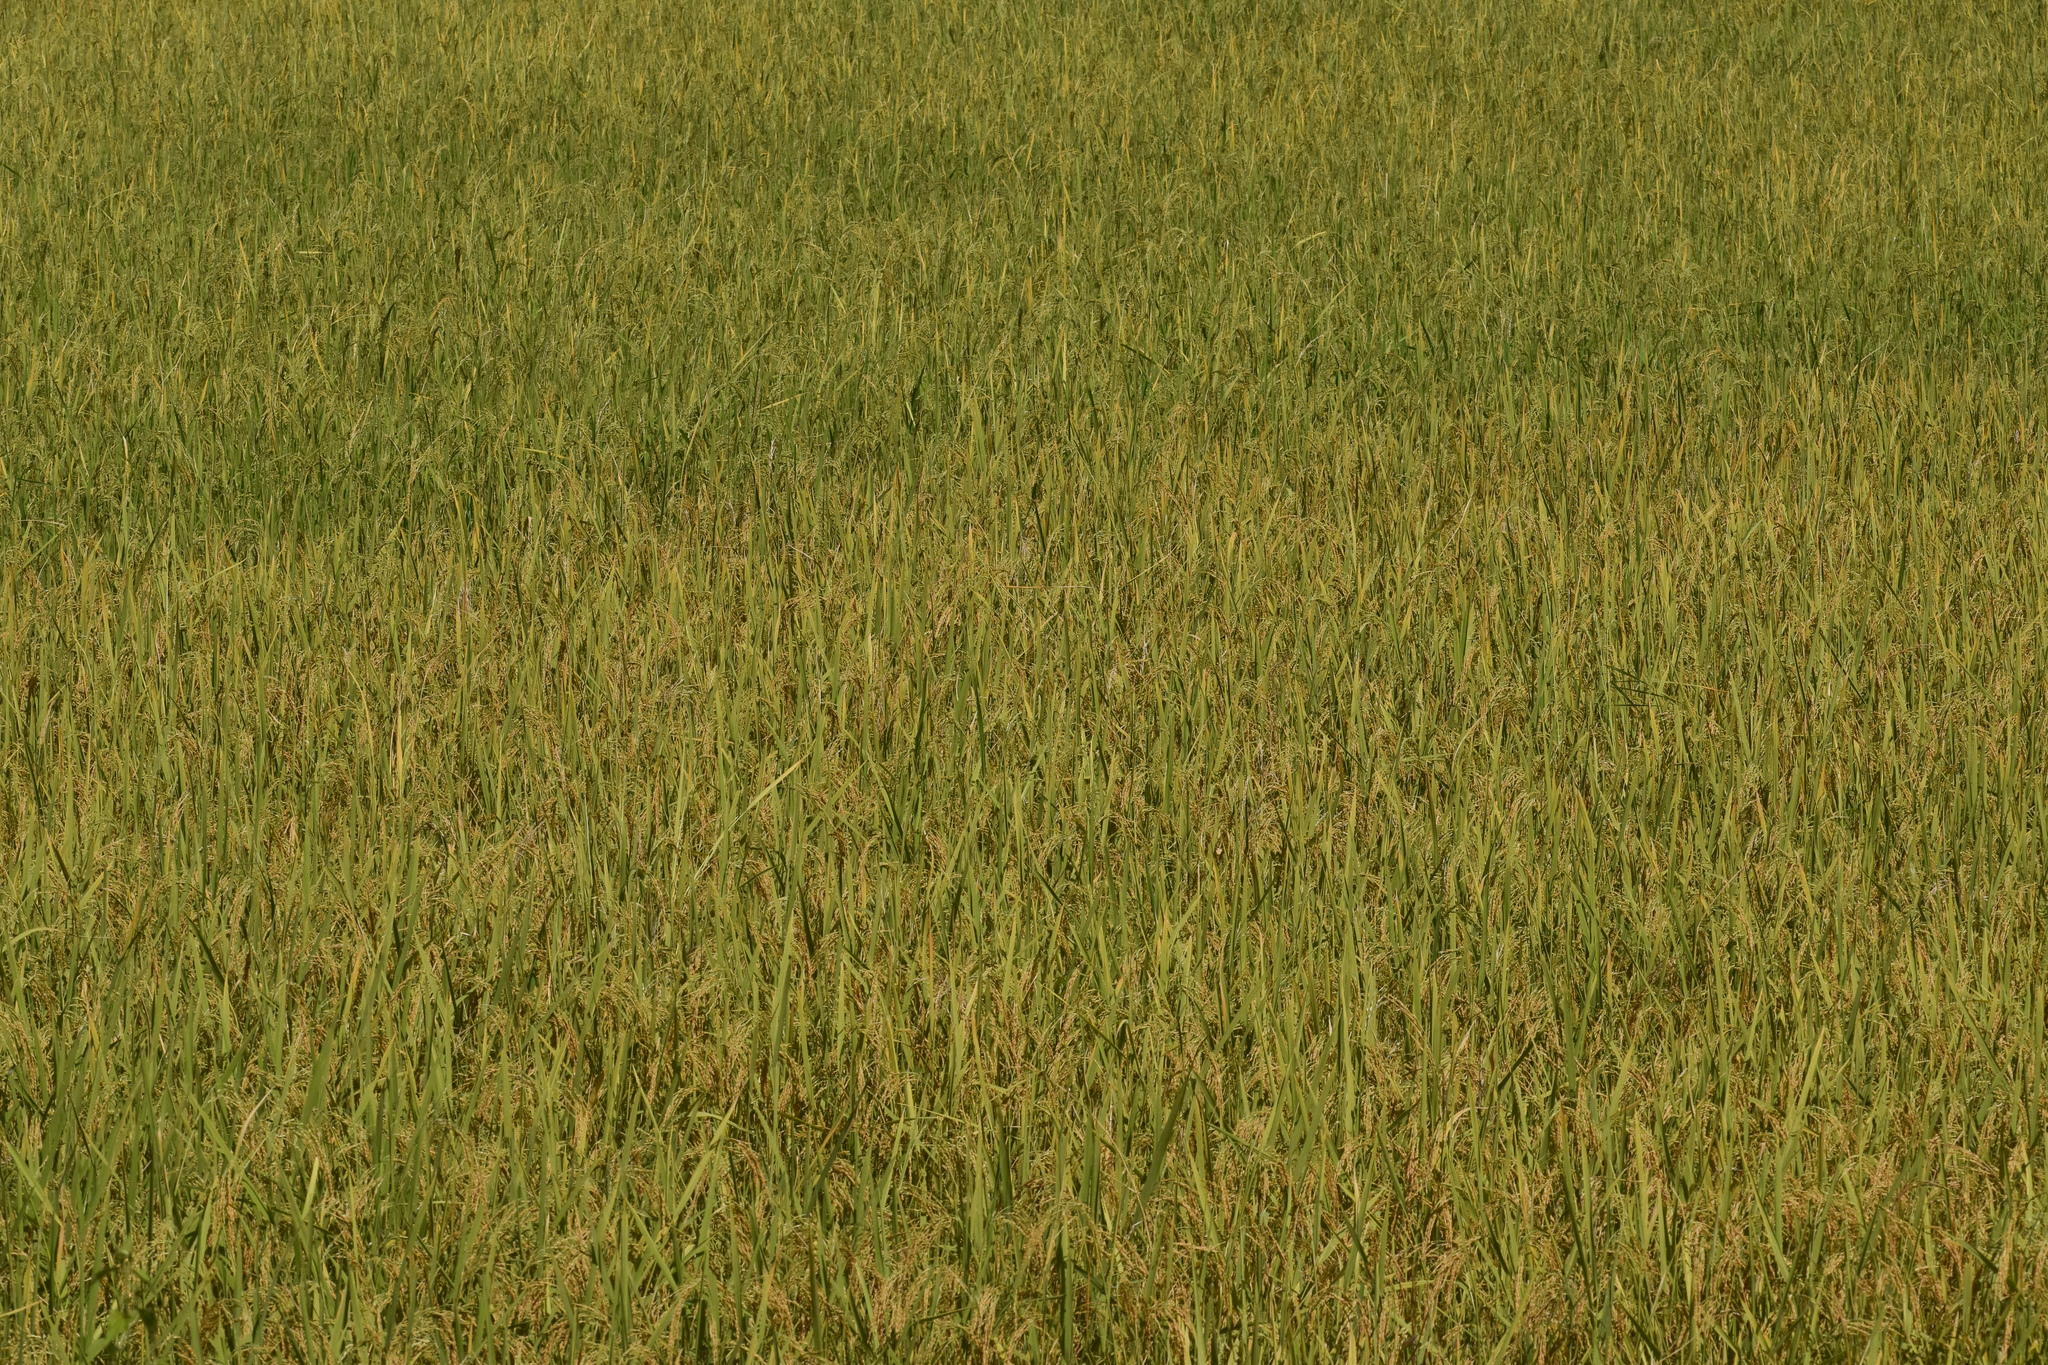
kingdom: Plantae
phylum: Tracheophyta
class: Liliopsida
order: Poales
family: Poaceae
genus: Oryza
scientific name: Oryza sativa
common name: Rice
